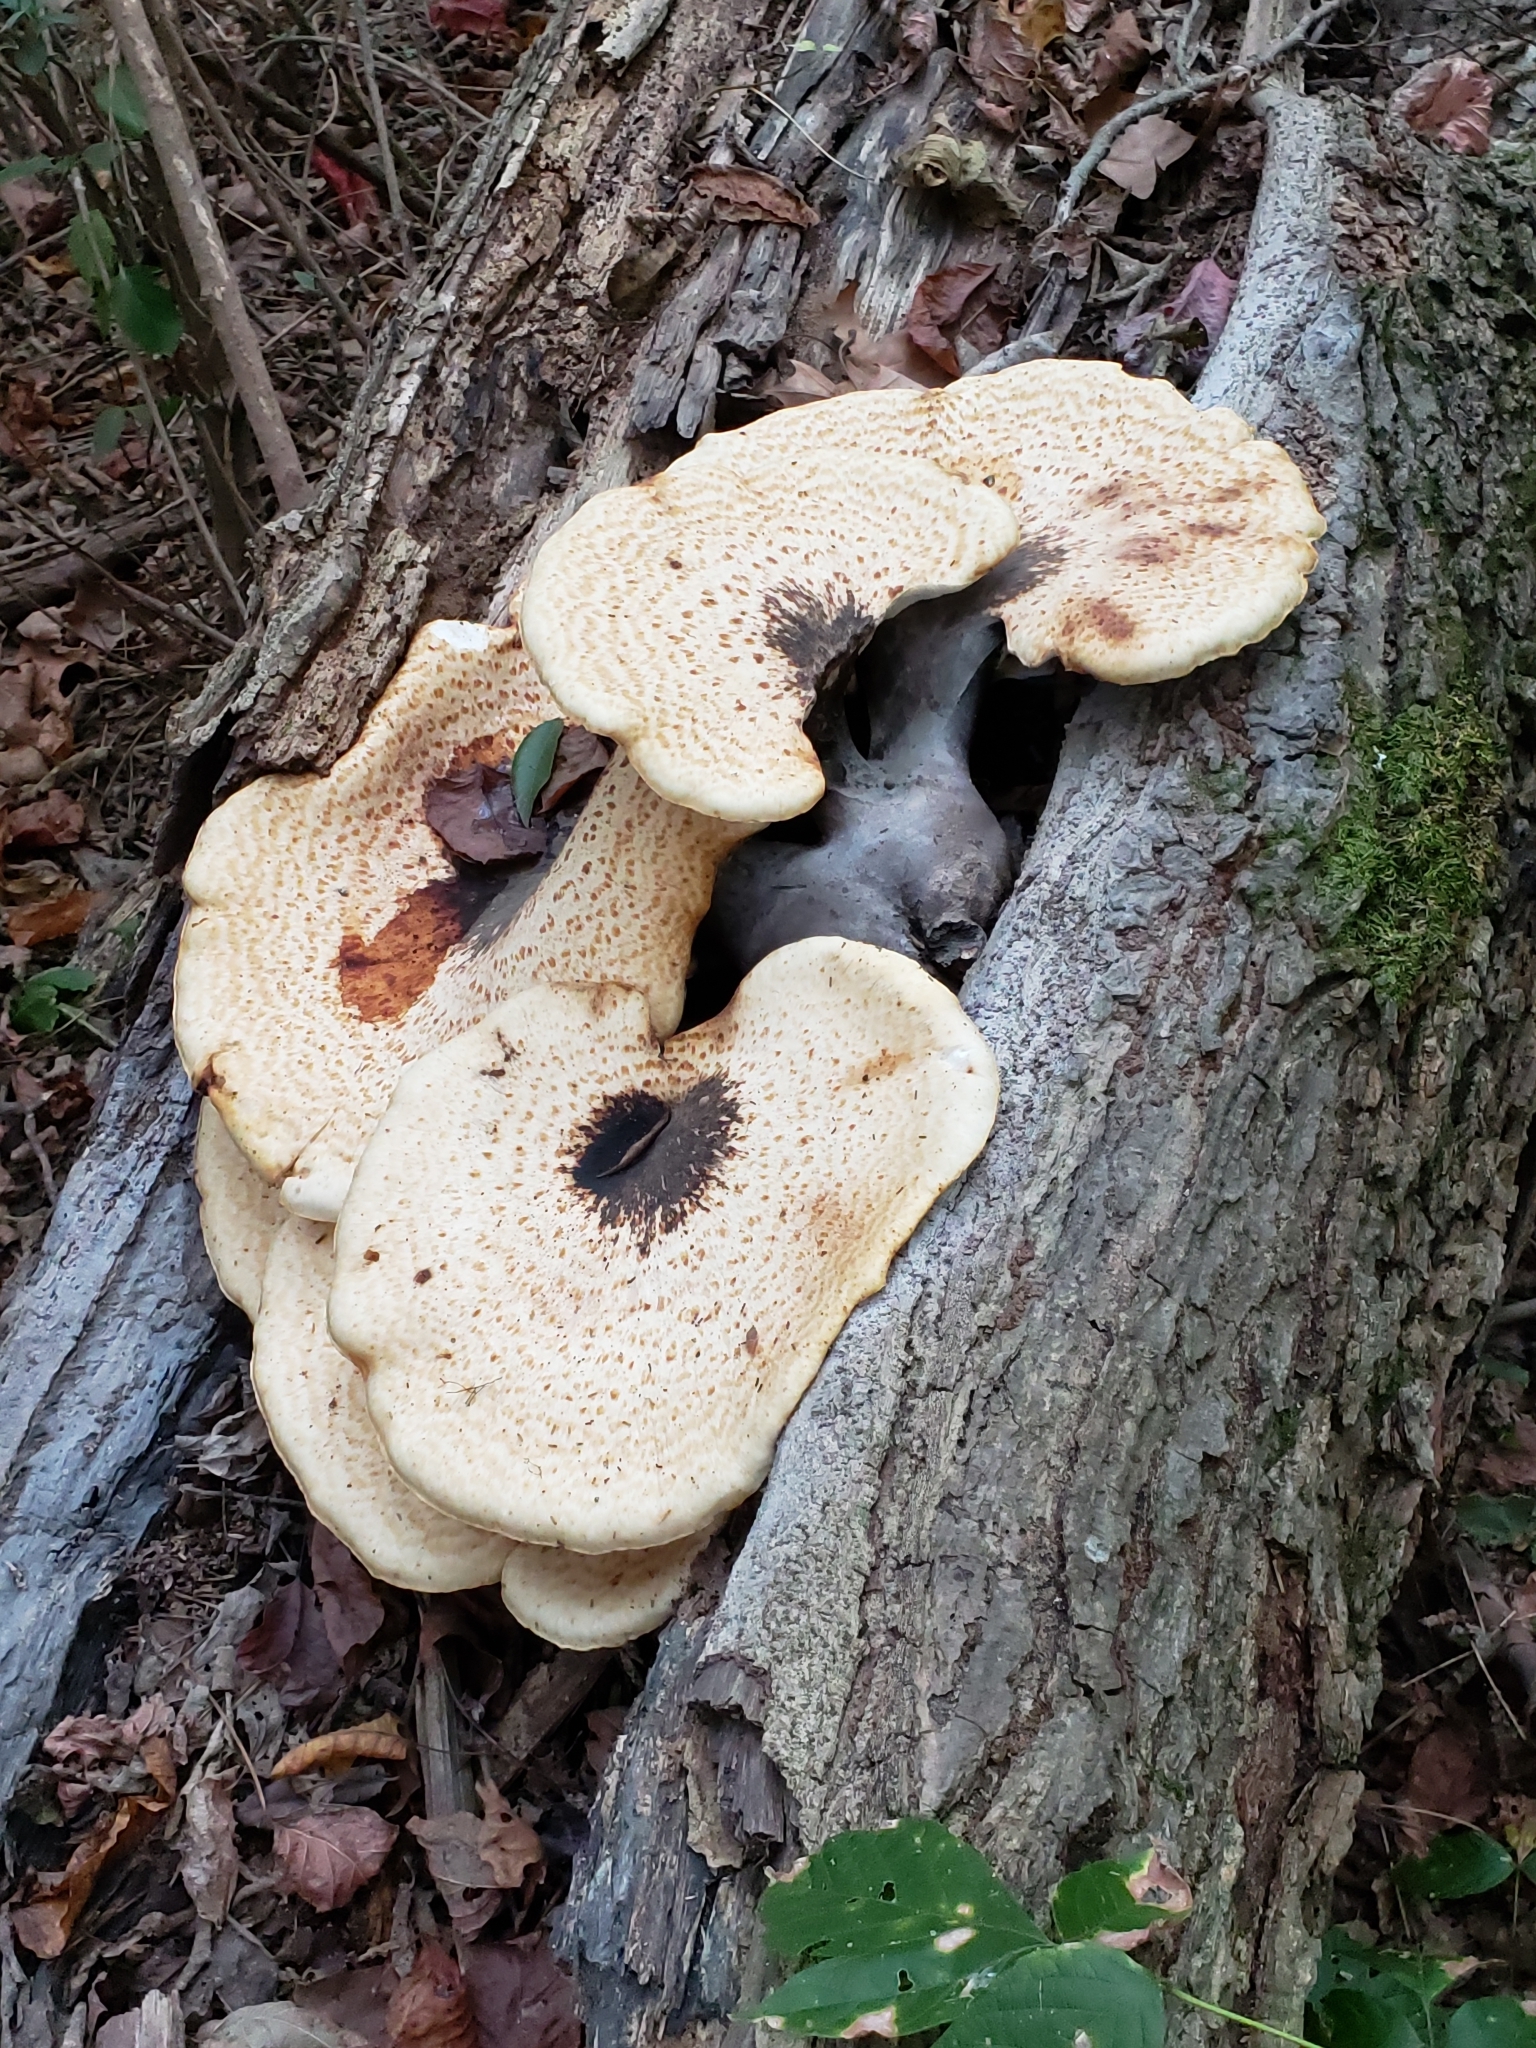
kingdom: Fungi
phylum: Basidiomycota
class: Agaricomycetes
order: Polyporales
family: Polyporaceae
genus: Cerioporus
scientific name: Cerioporus squamosus
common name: Dryad's saddle
